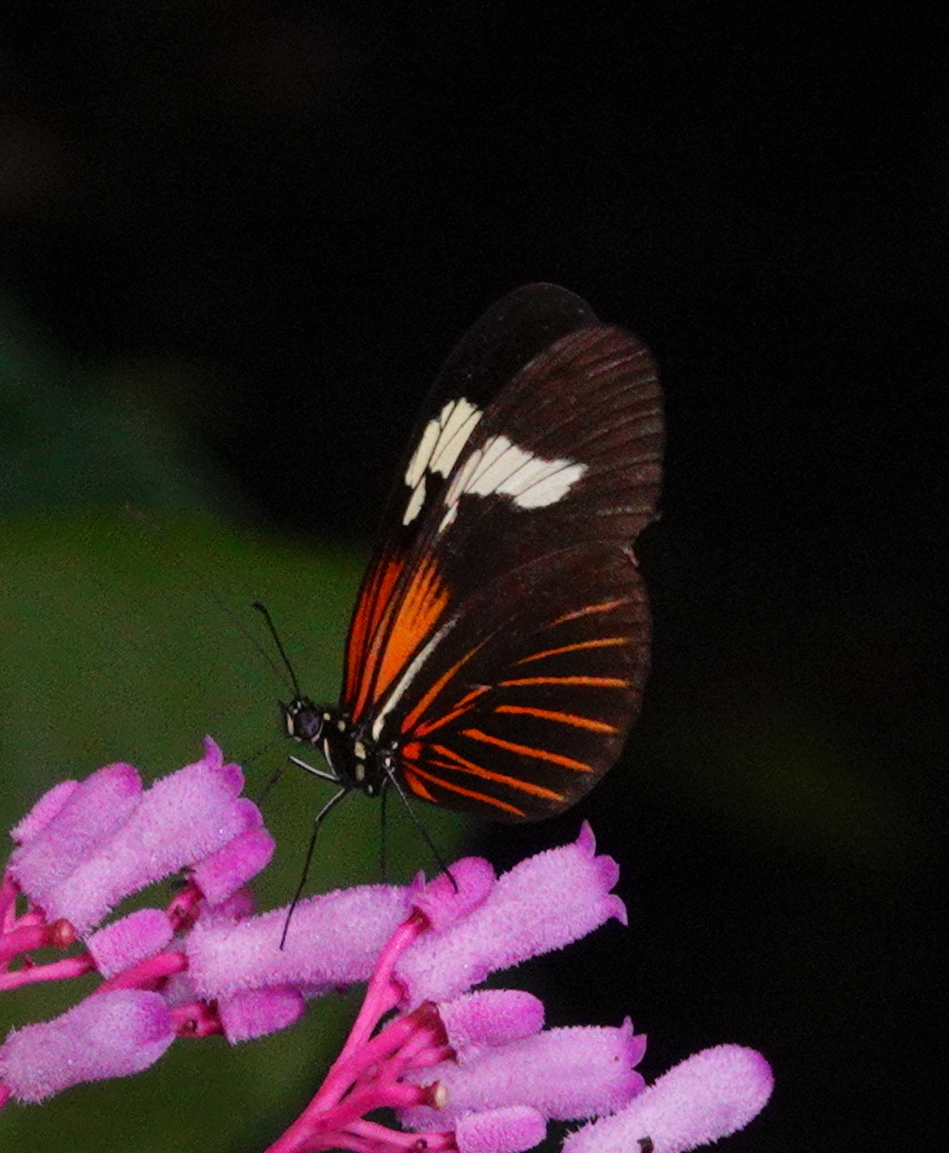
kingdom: Animalia
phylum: Arthropoda
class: Insecta
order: Lepidoptera
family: Nymphalidae
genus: Heliconius
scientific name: Heliconius erato
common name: Common patch longwing
